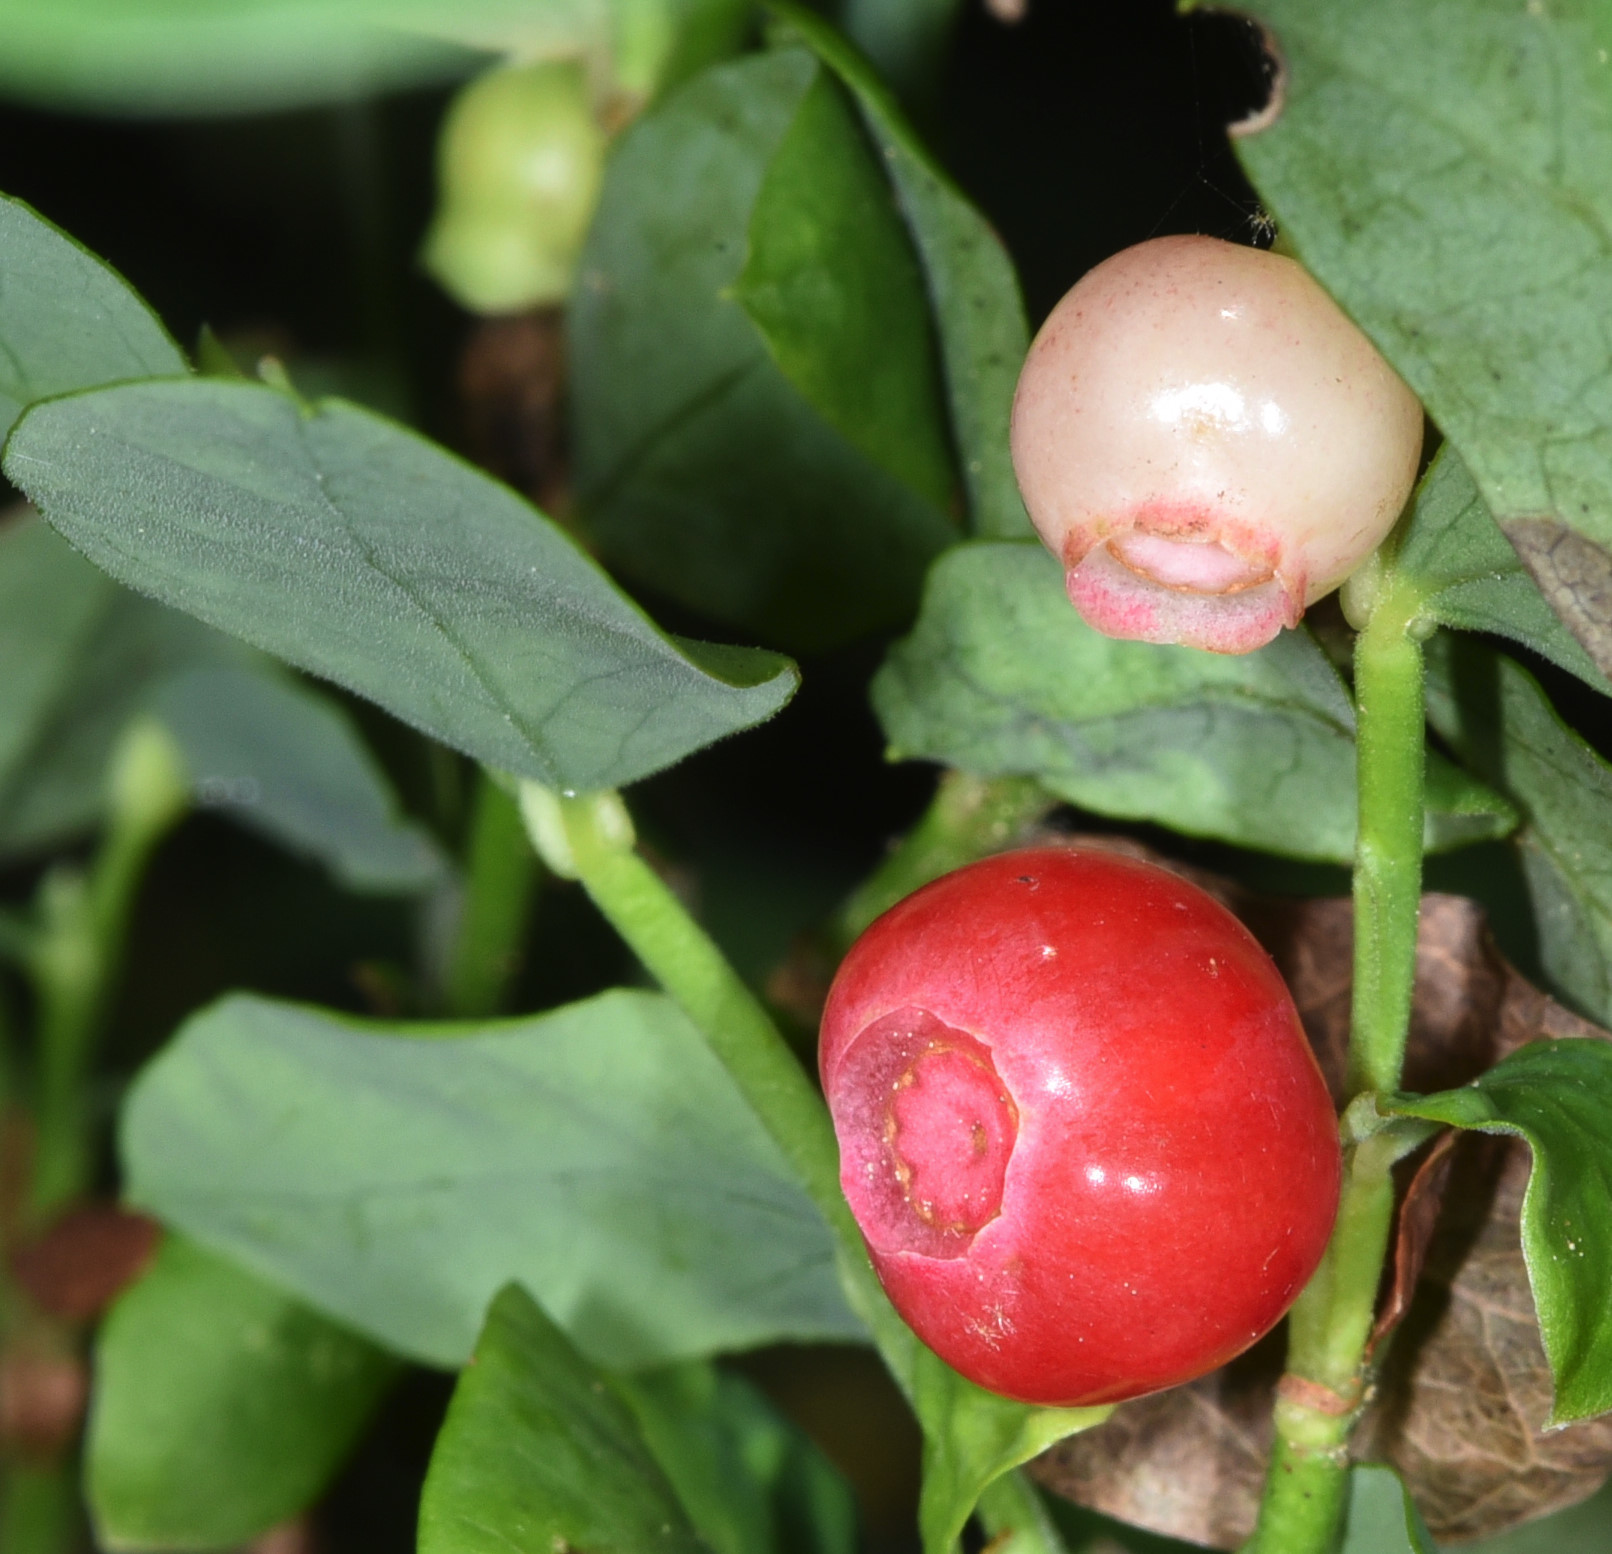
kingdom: Plantae
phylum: Tracheophyta
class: Magnoliopsida
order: Ericales
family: Ericaceae
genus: Vaccinium
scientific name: Vaccinium parvifolium
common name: Red-huckleberry
